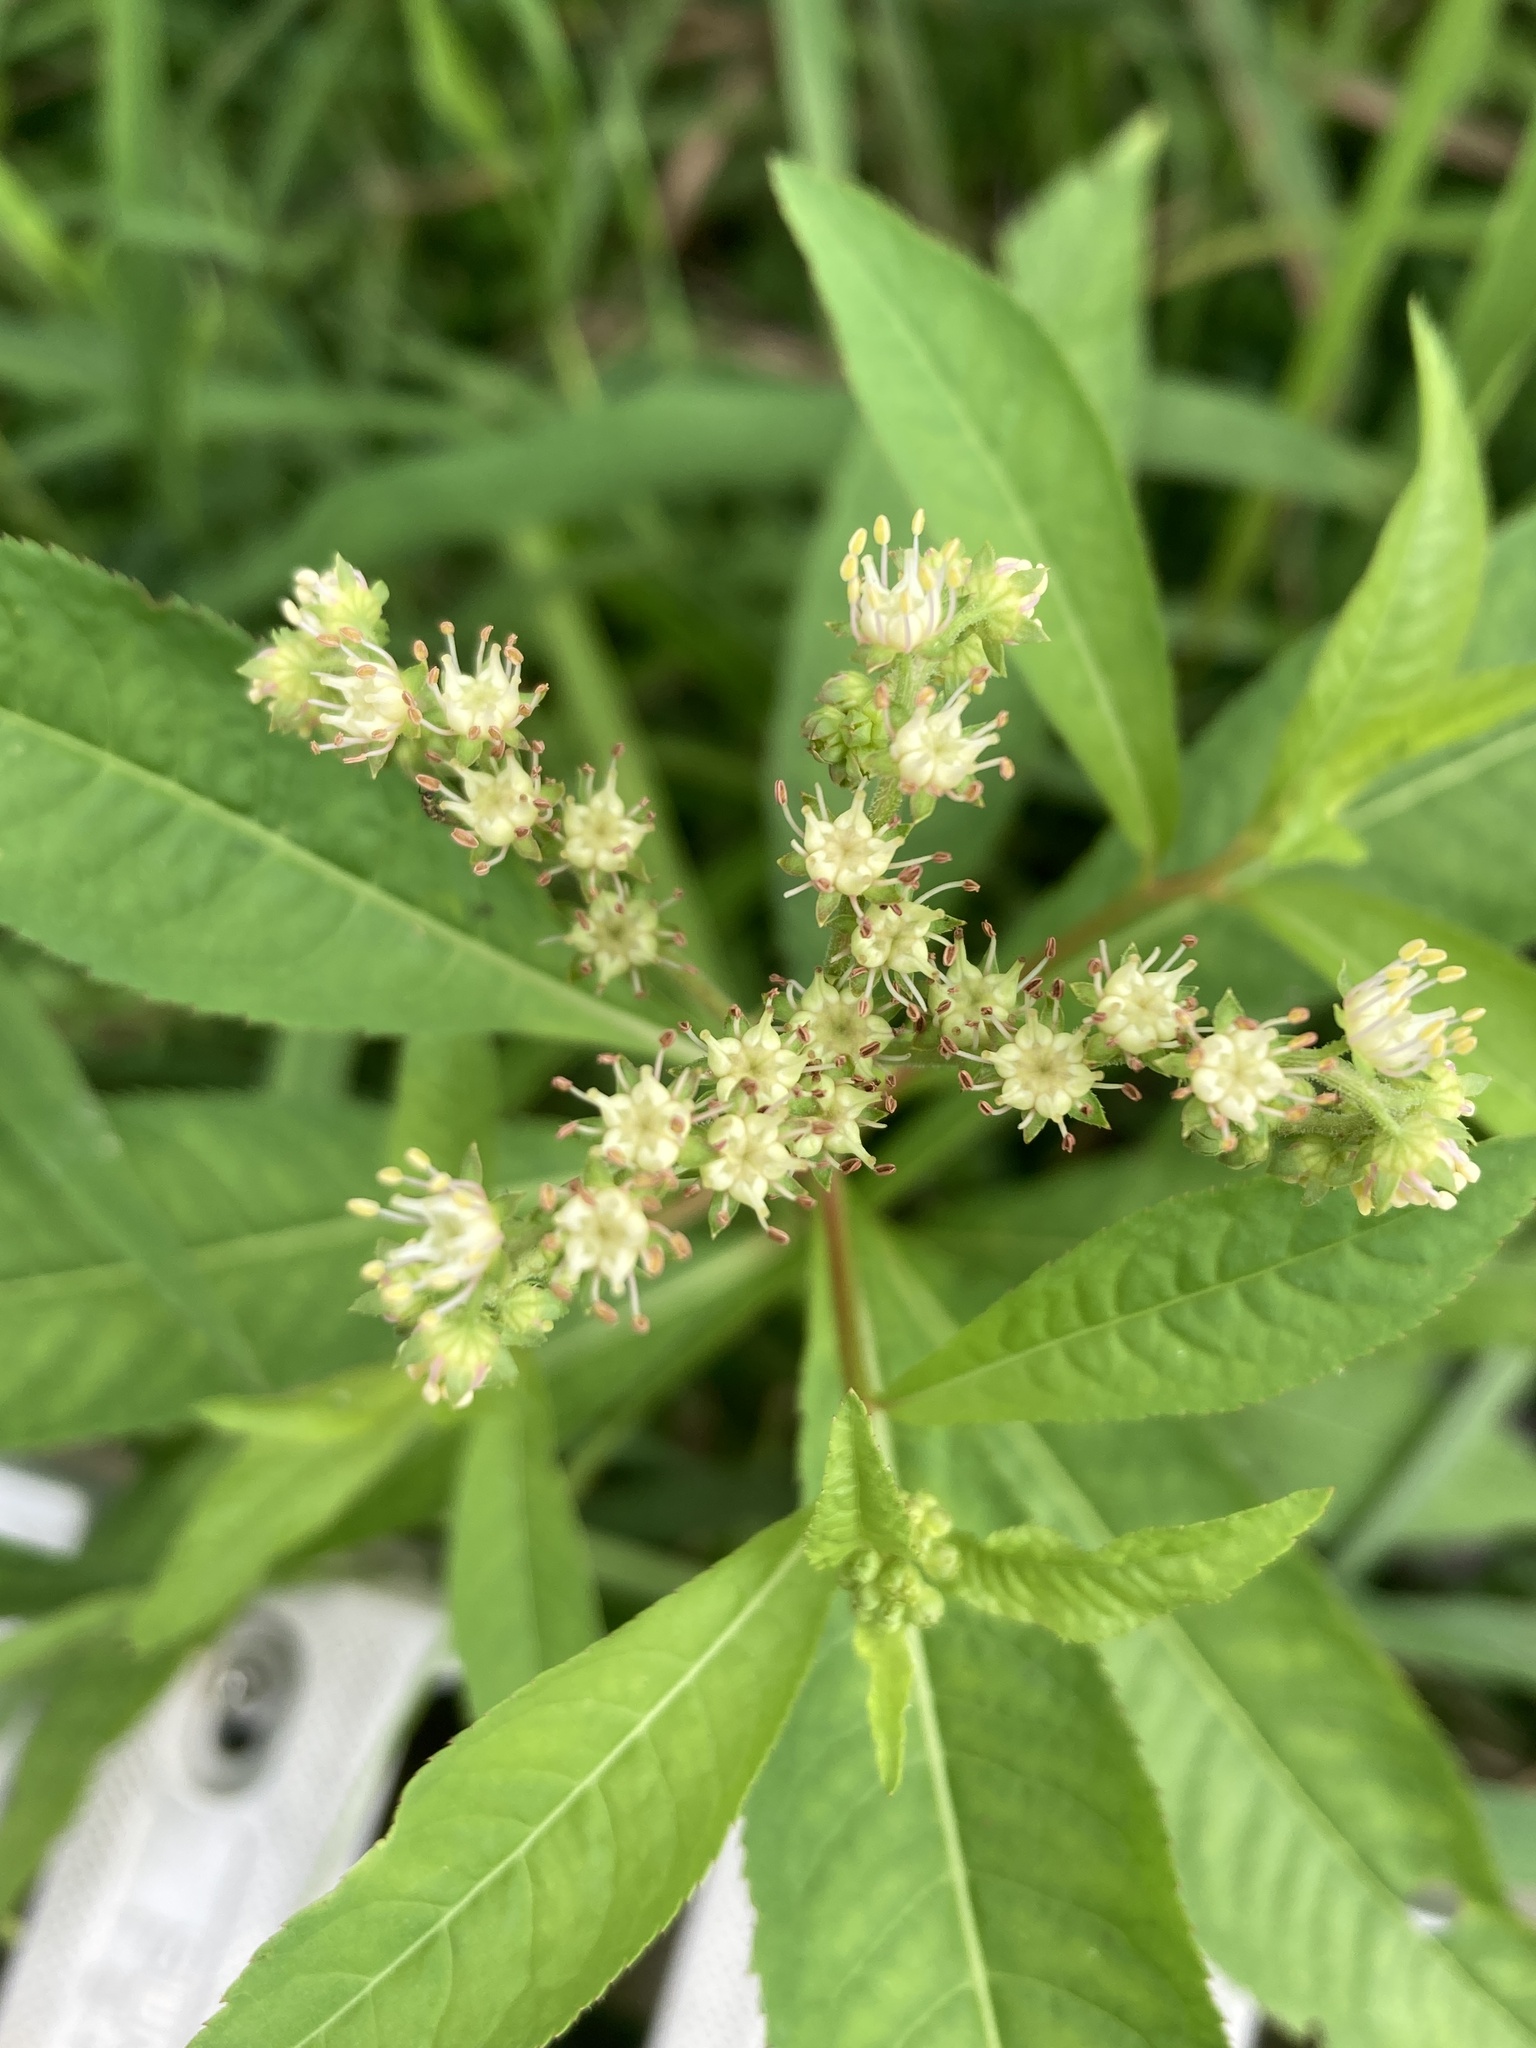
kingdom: Plantae
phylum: Tracheophyta
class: Magnoliopsida
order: Saxifragales
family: Penthoraceae
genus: Penthorum
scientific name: Penthorum sedoides
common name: Ditch stonecrop
